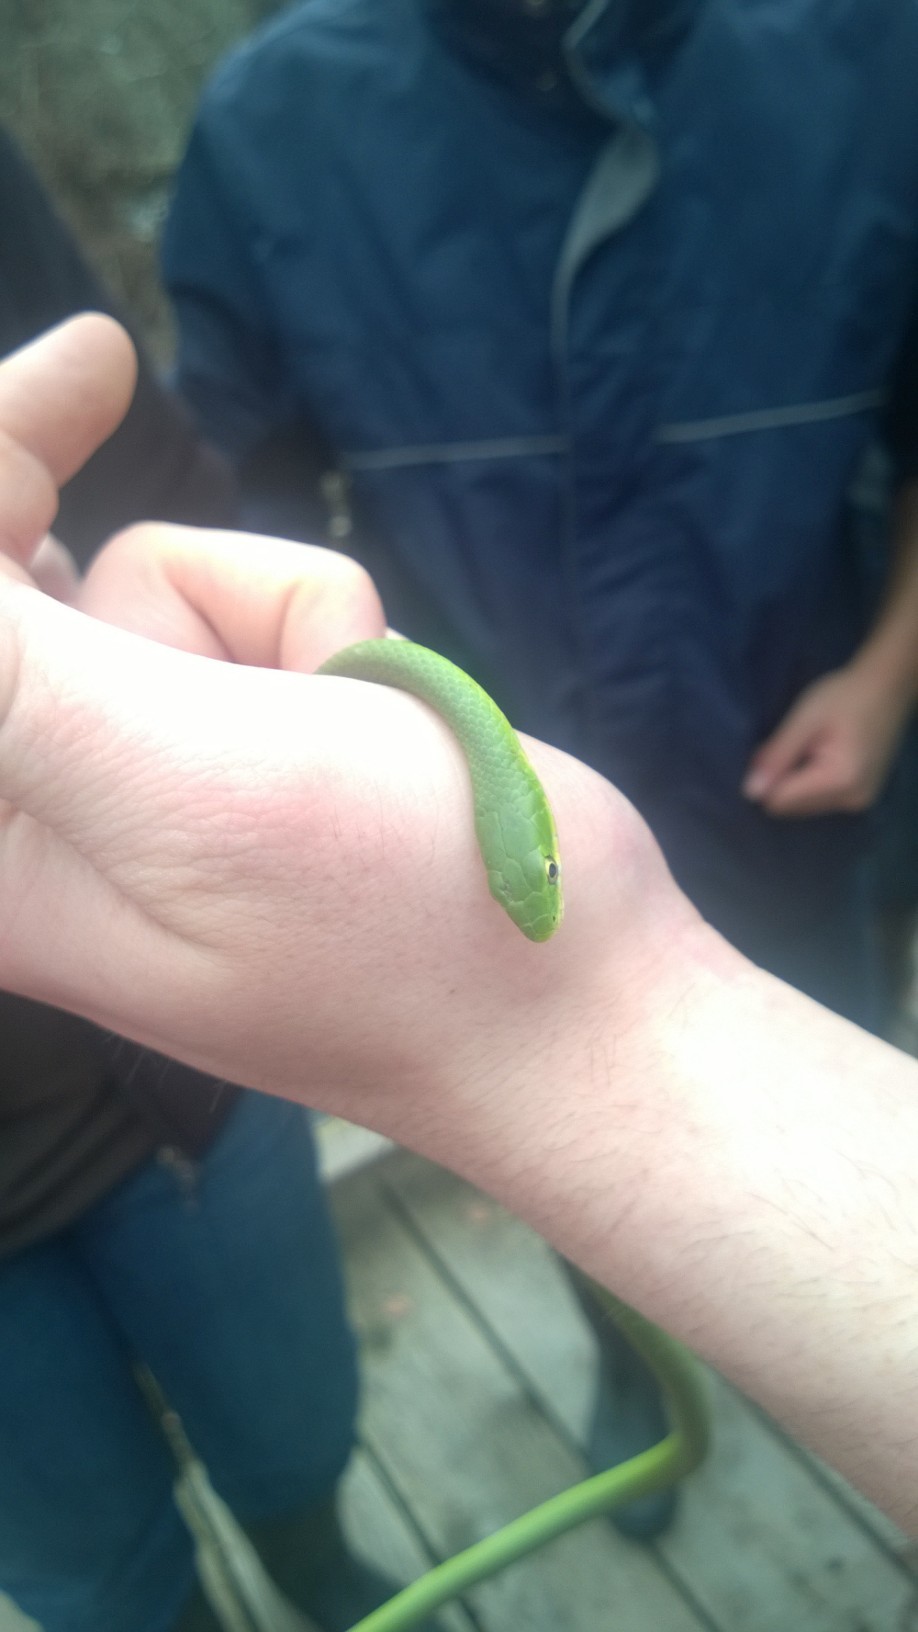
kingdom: Animalia
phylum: Chordata
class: Squamata
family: Colubridae
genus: Opheodrys
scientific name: Opheodrys aestivus
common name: Rough greensnake
